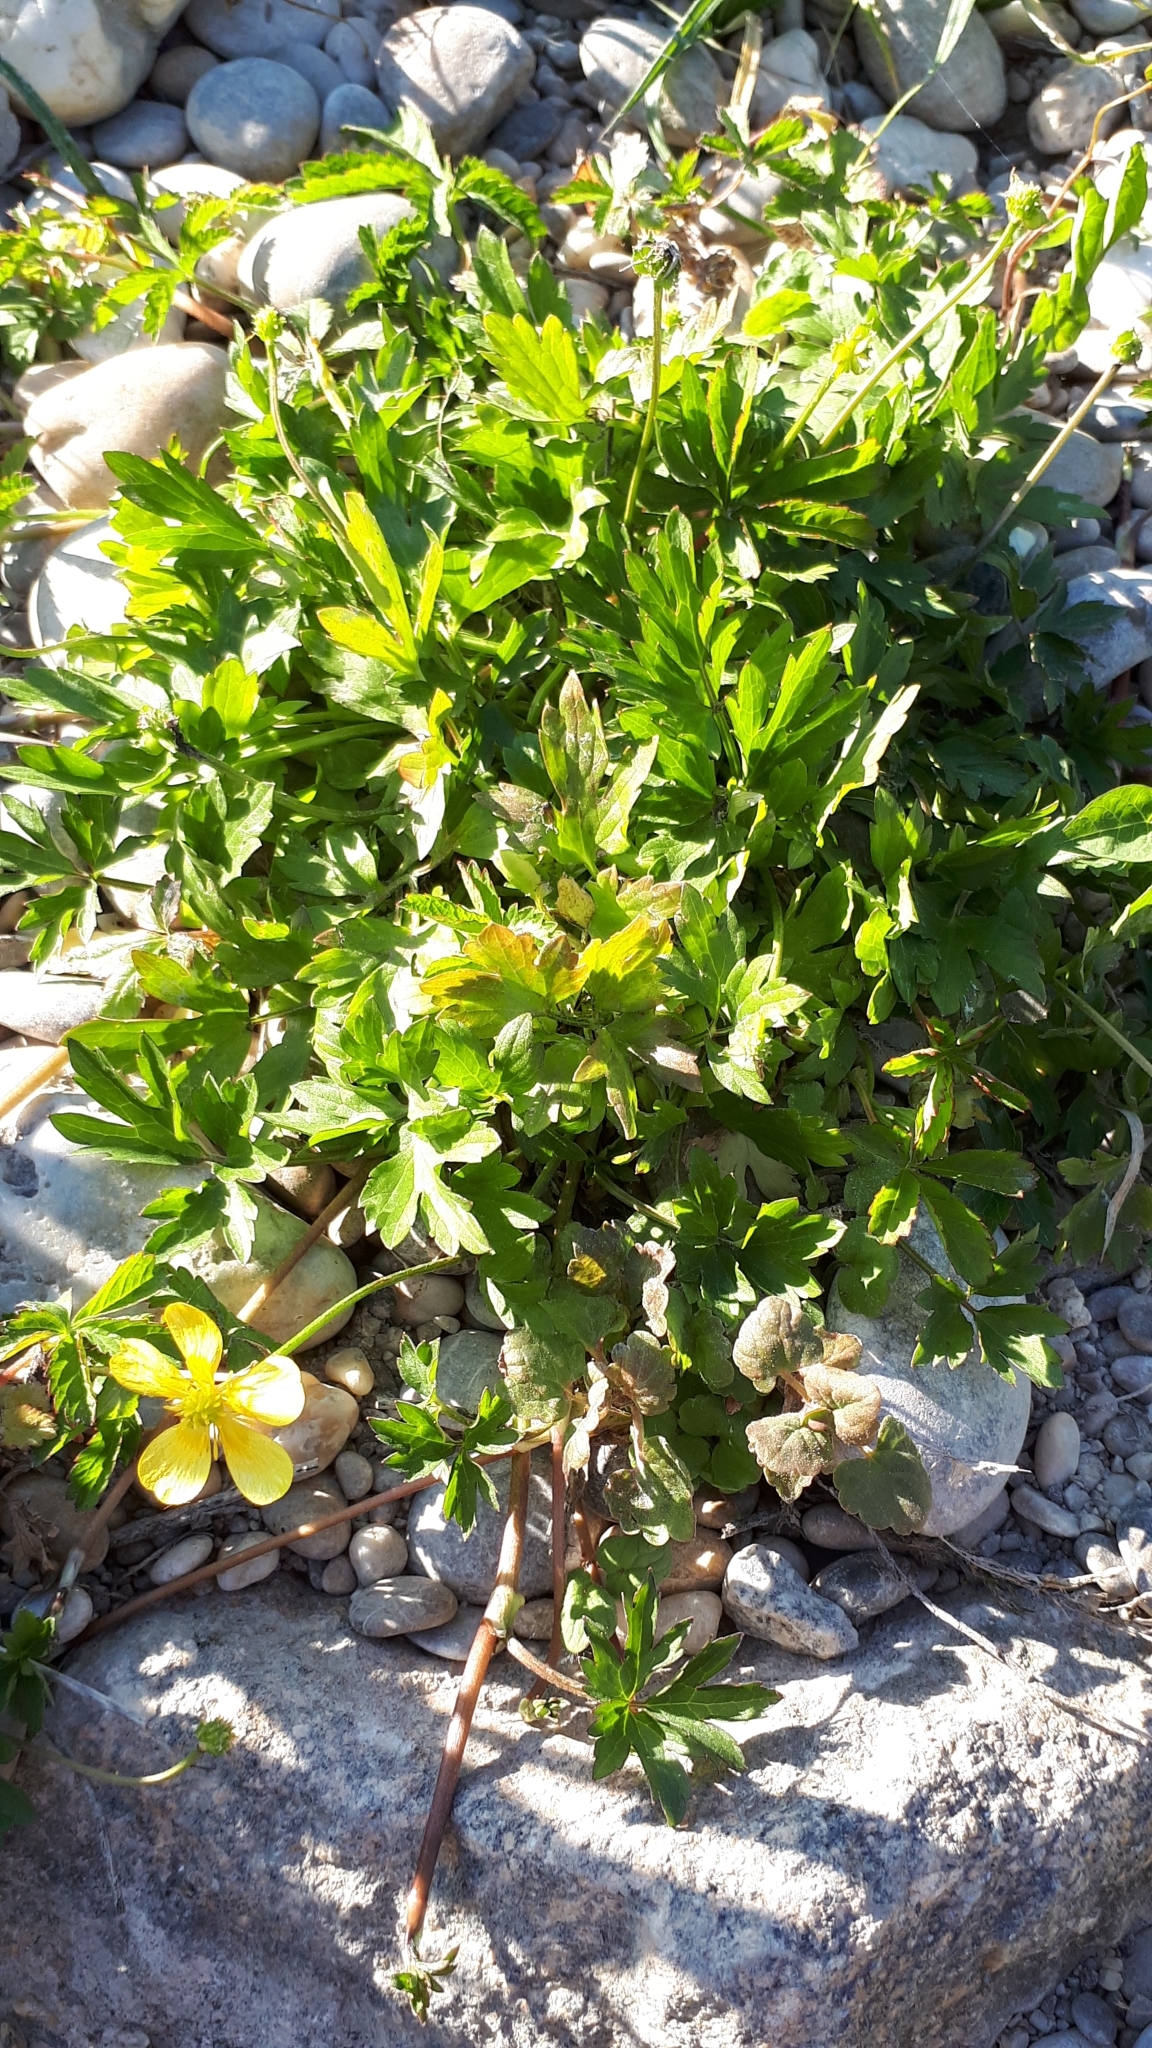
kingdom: Plantae
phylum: Tracheophyta
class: Magnoliopsida
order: Ranunculales
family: Ranunculaceae
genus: Ranunculus
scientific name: Ranunculus repens
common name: Creeping buttercup
